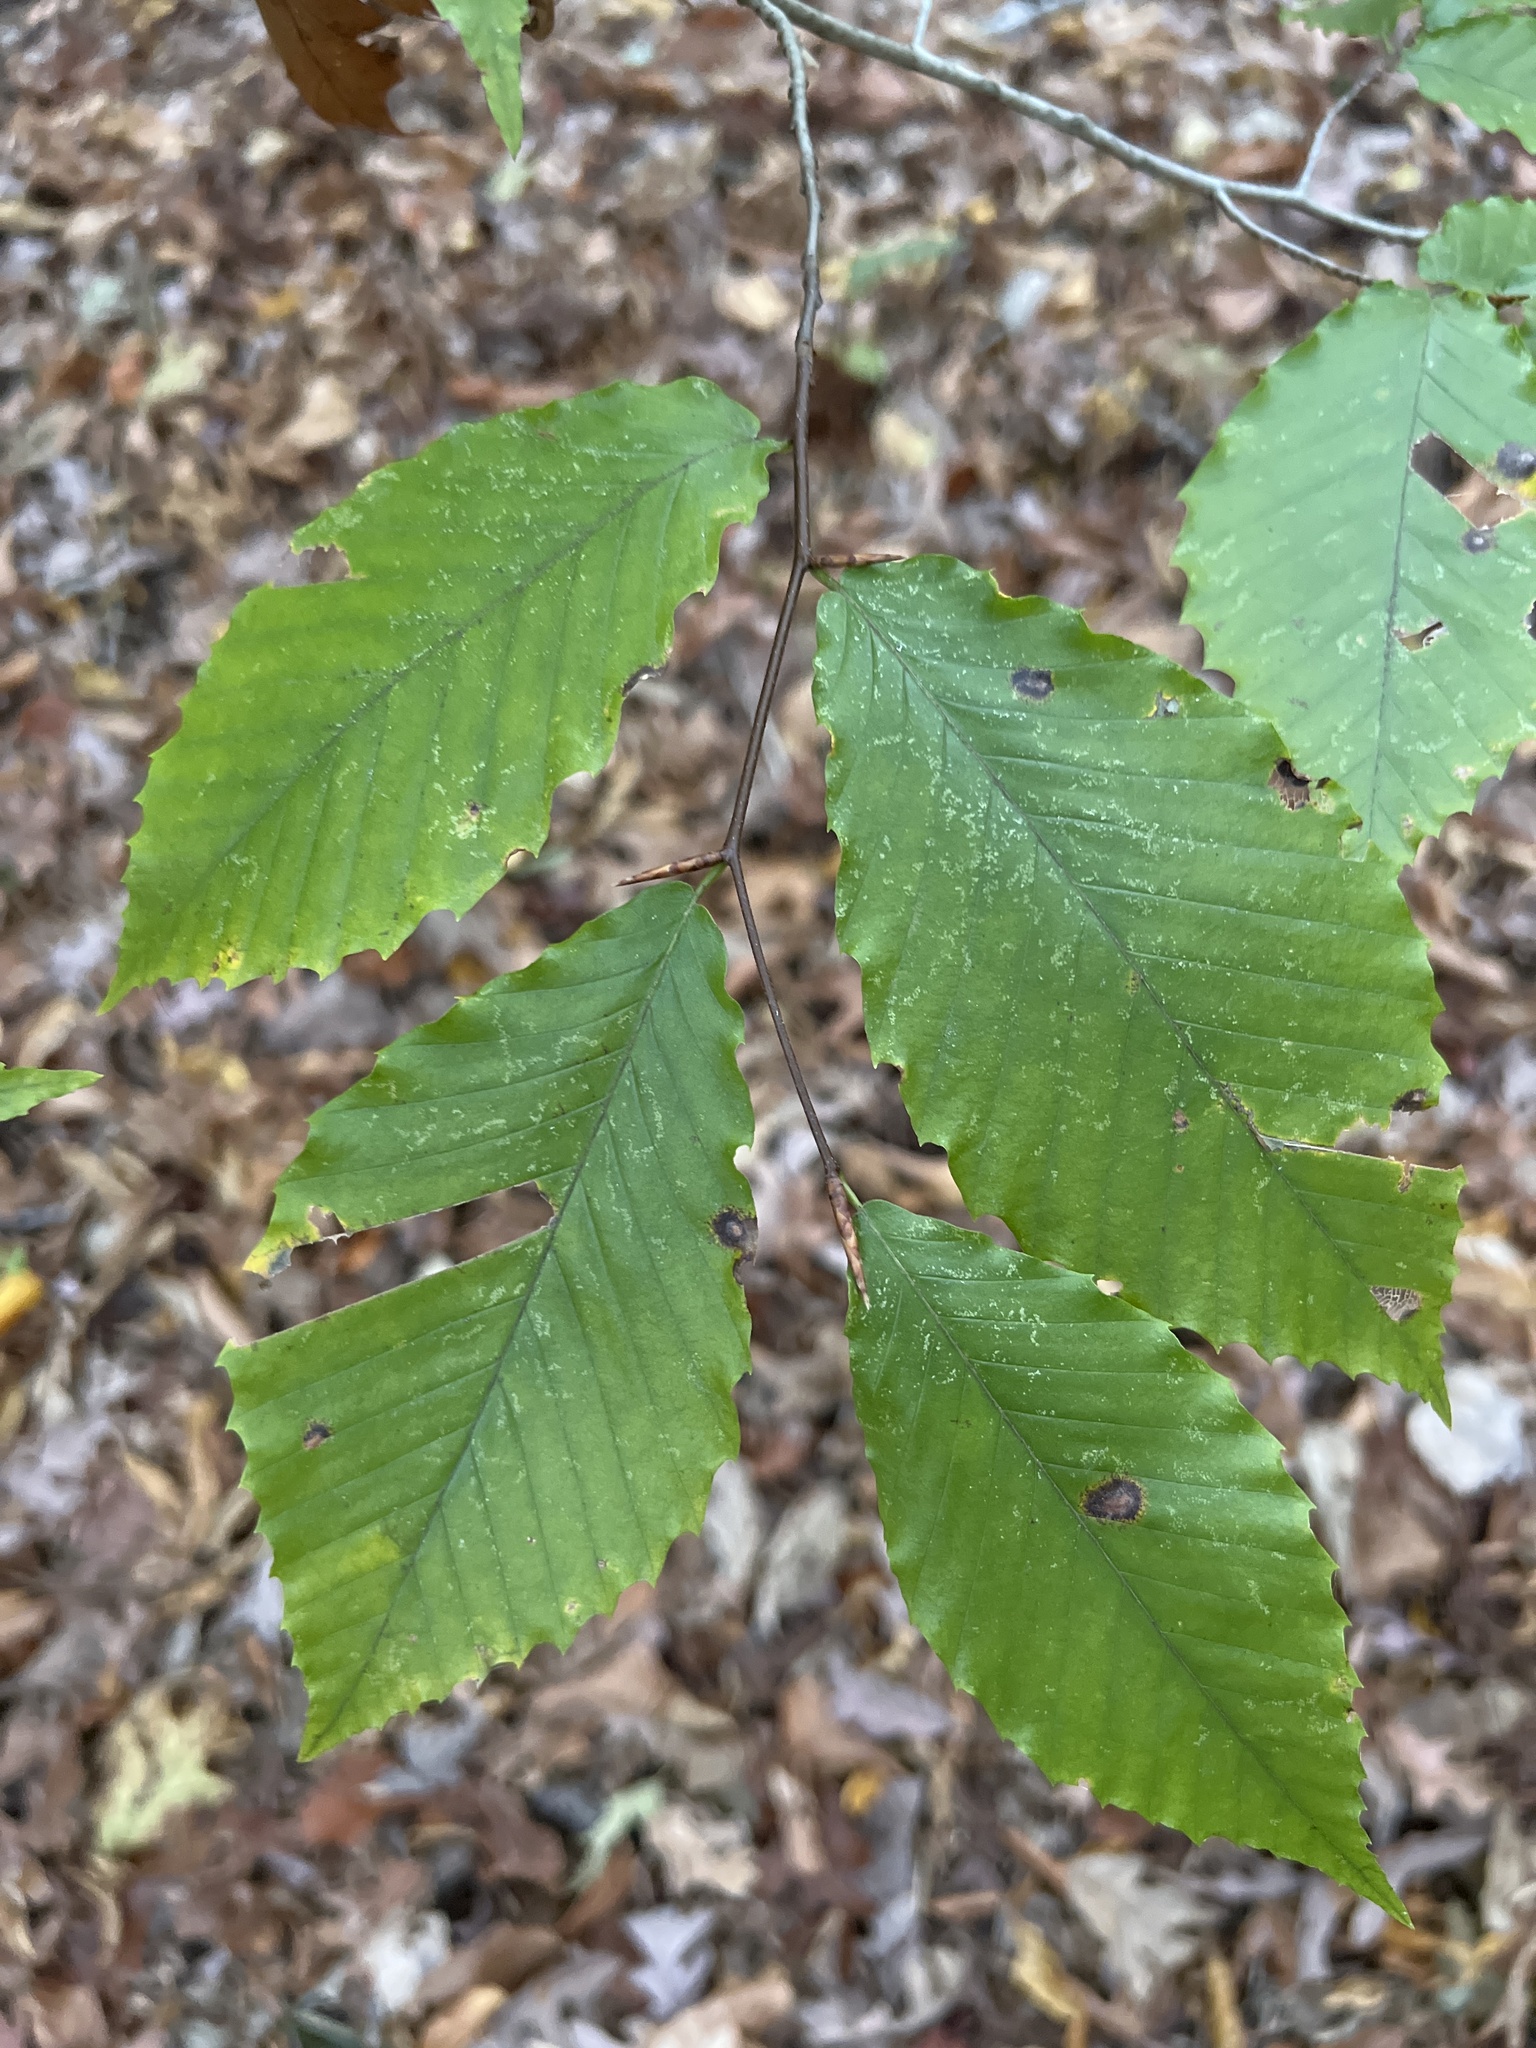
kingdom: Plantae
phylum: Tracheophyta
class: Magnoliopsida
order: Fagales
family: Fagaceae
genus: Fagus
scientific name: Fagus grandifolia
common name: American beech
